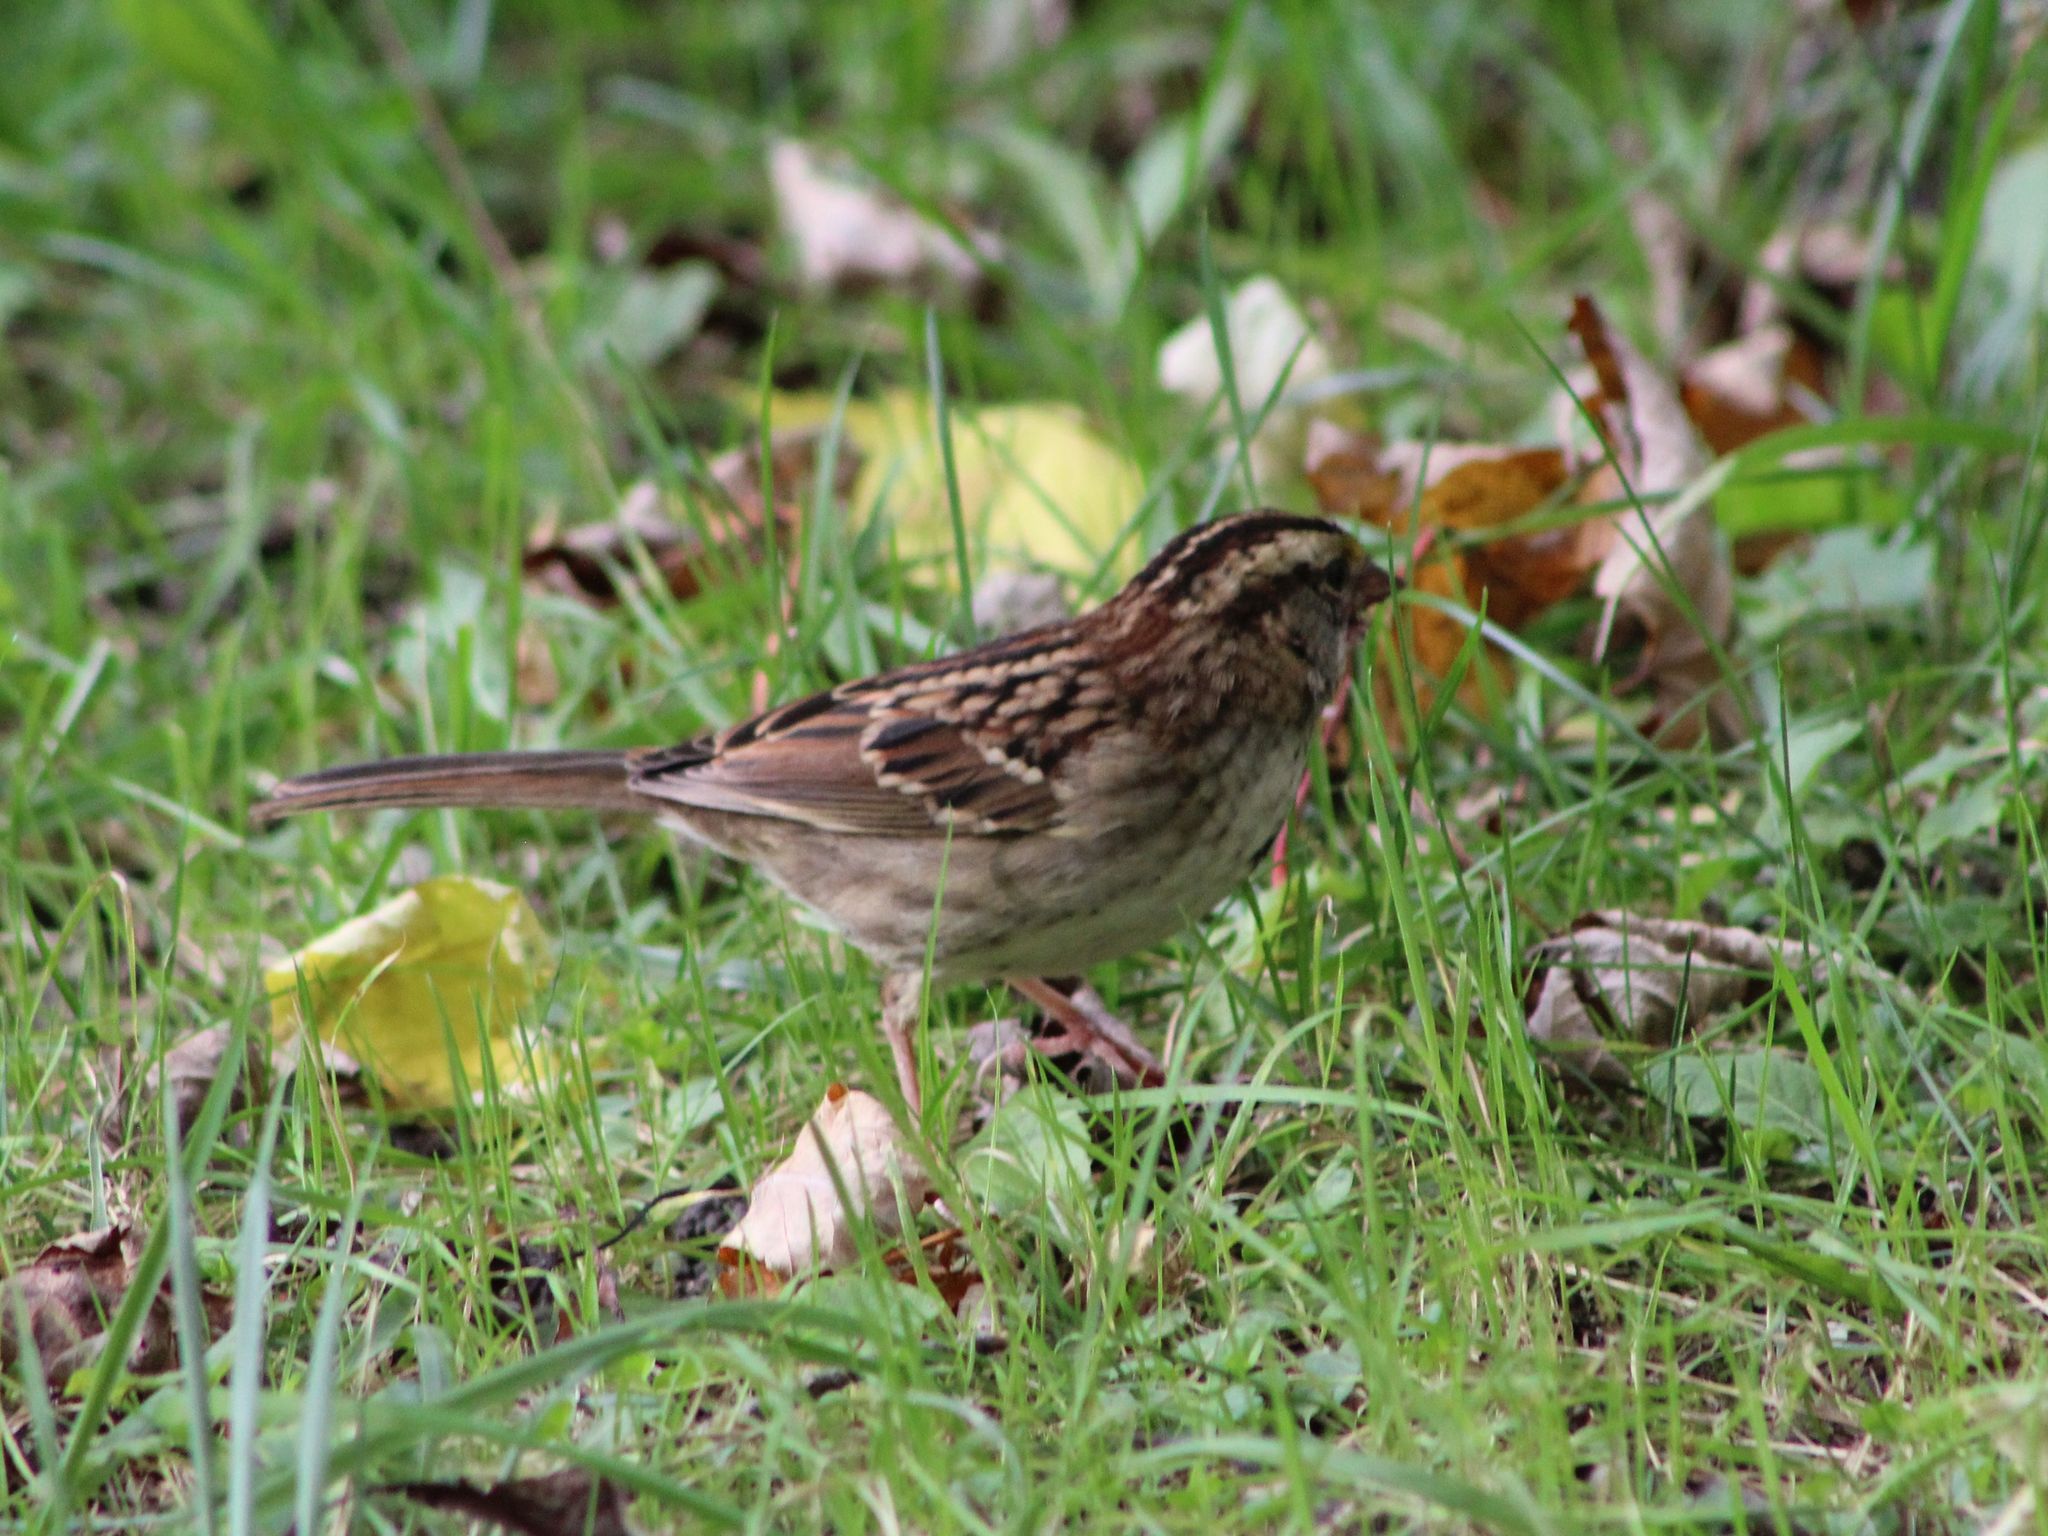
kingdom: Animalia
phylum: Chordata
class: Aves
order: Passeriformes
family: Passerellidae
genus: Zonotrichia
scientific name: Zonotrichia albicollis
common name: White-throated sparrow
